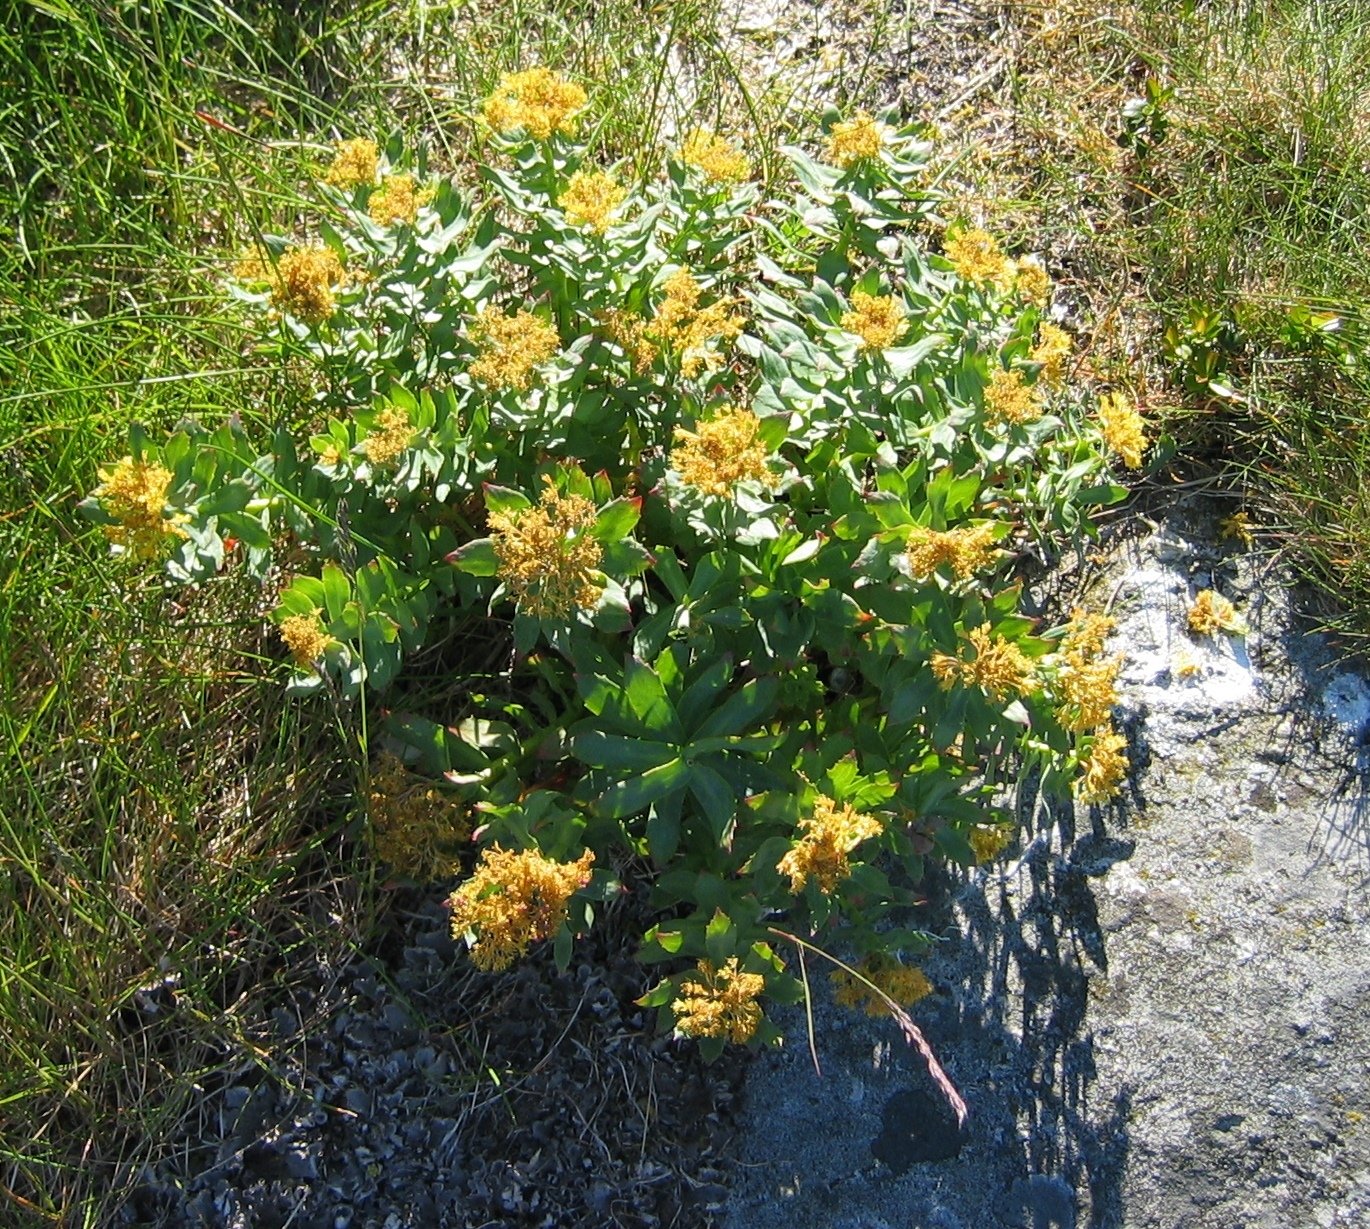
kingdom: Plantae
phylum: Tracheophyta
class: Magnoliopsida
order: Saxifragales
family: Crassulaceae
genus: Rhodiola
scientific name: Rhodiola rosea
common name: Roseroot
